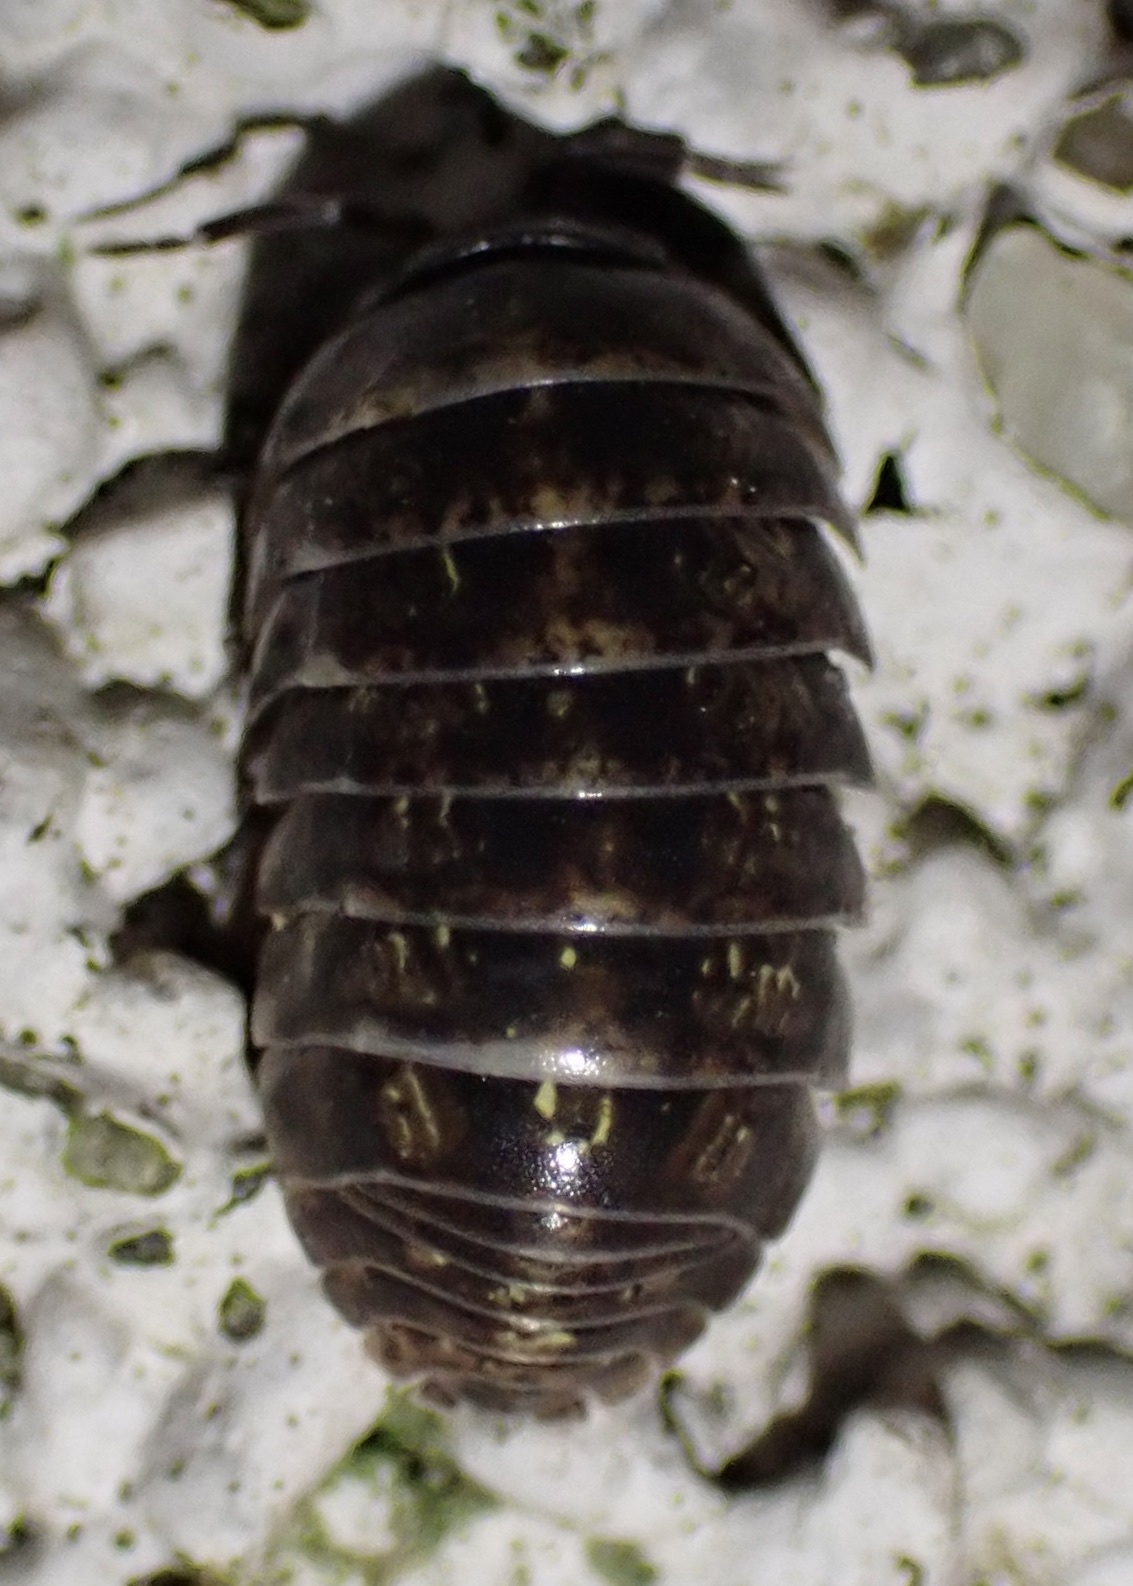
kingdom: Animalia
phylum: Arthropoda
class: Malacostraca
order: Isopoda
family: Armadillidiidae
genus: Armadillidium
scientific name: Armadillidium vulgare
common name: Common pill woodlouse
